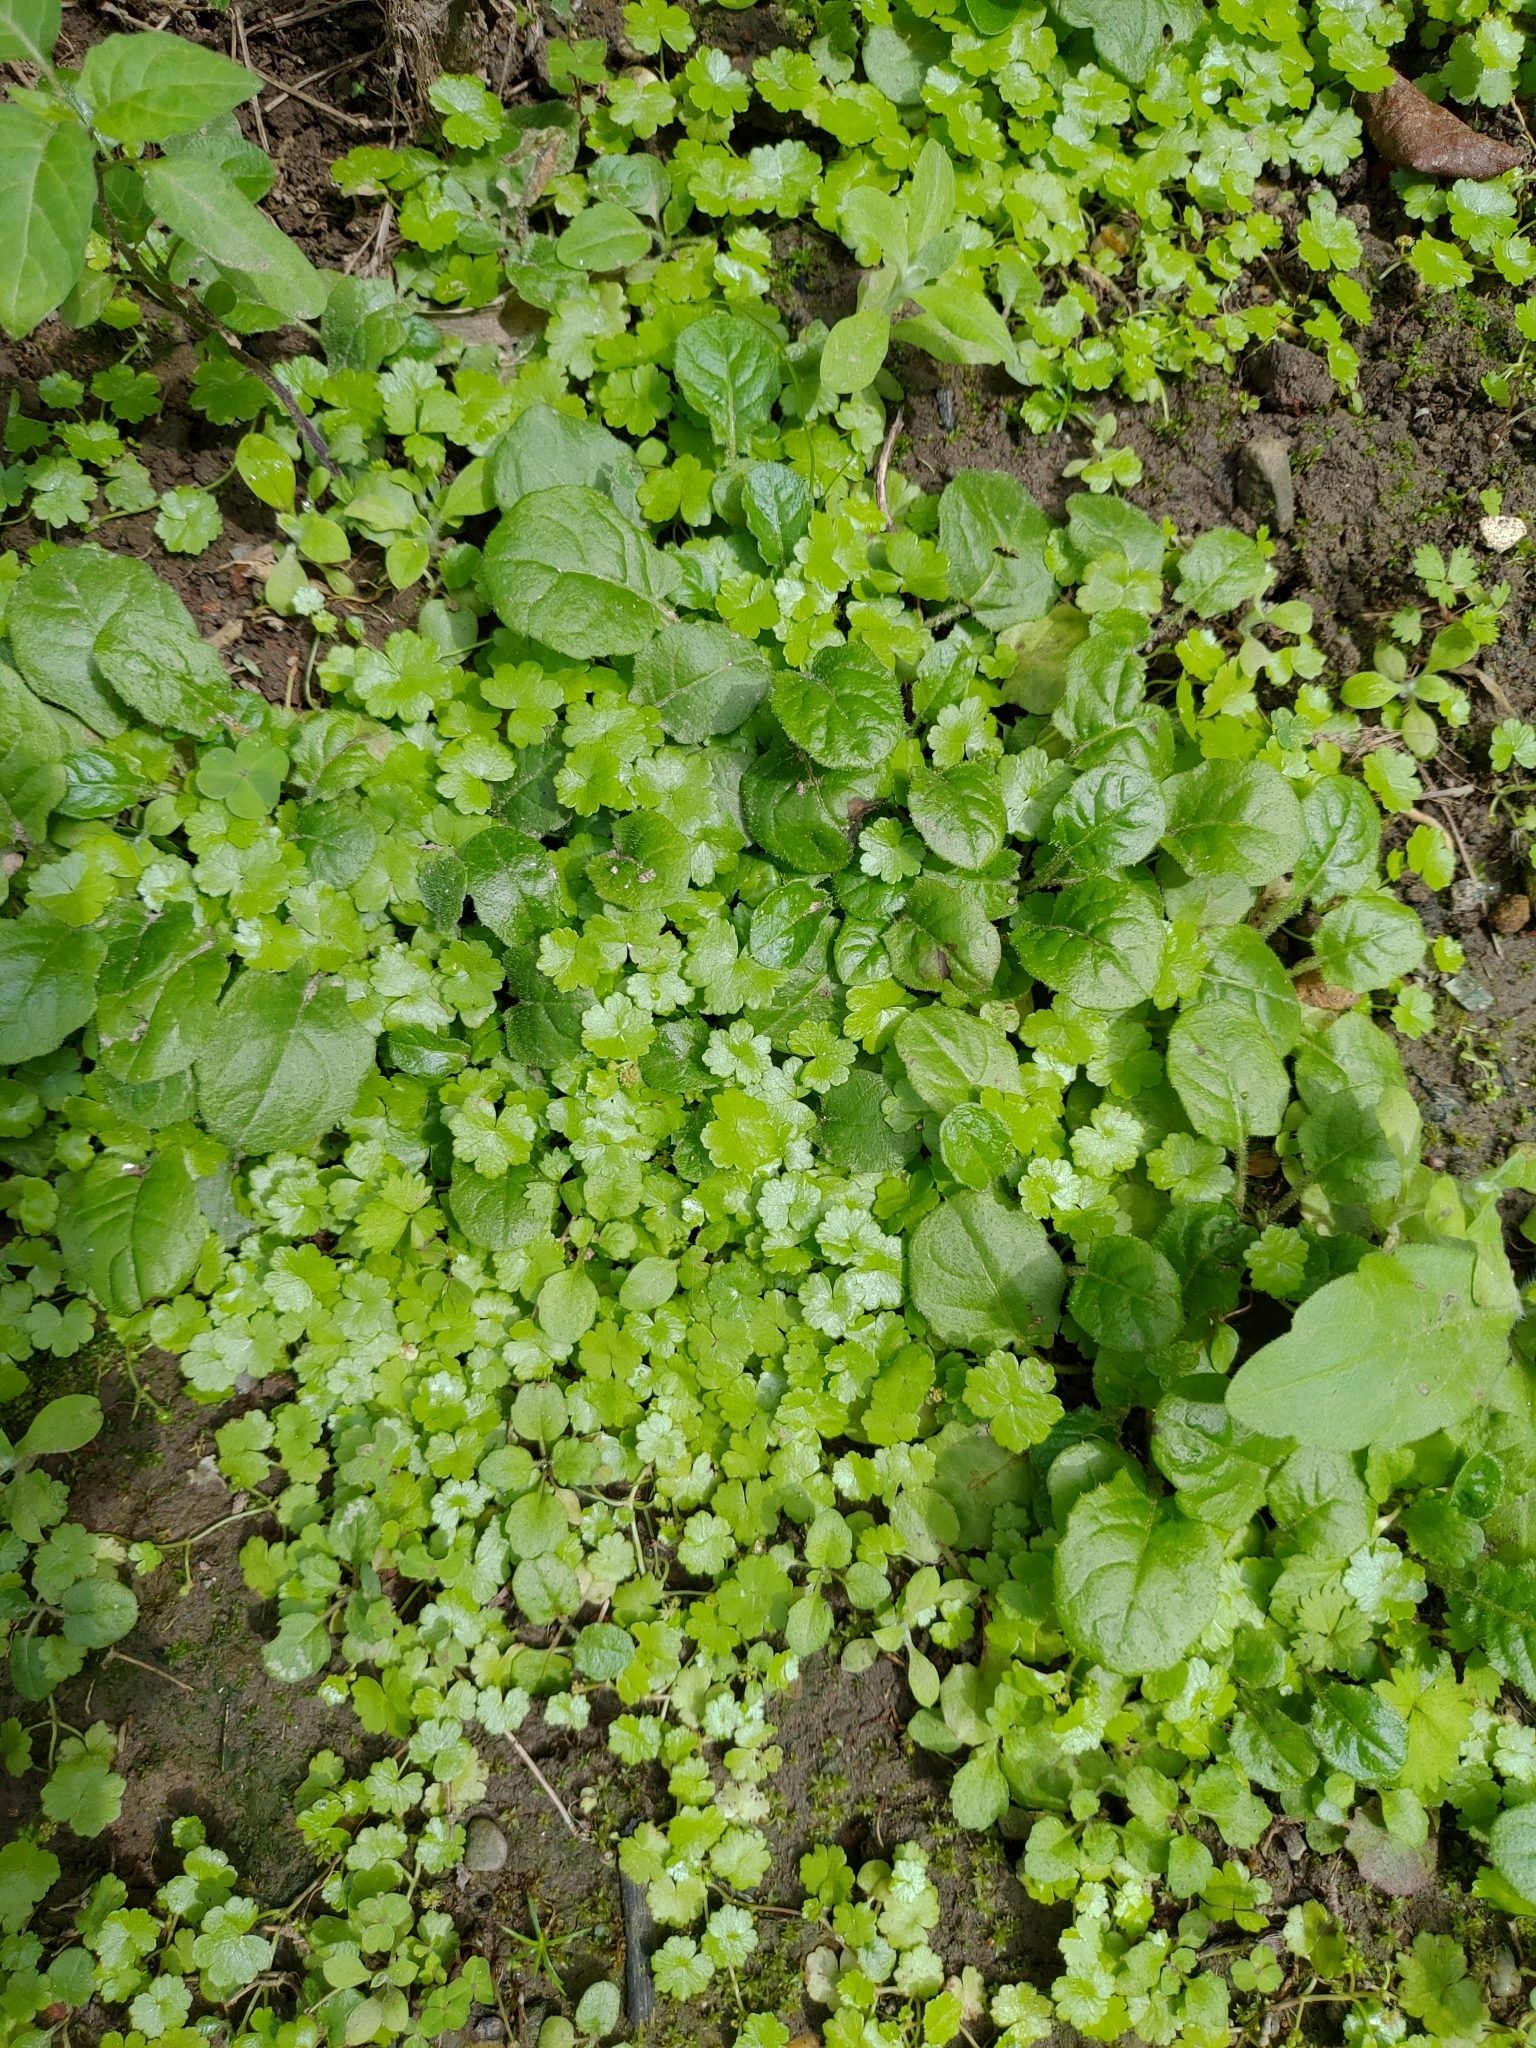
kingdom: Plantae
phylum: Tracheophyta
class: Magnoliopsida
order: Apiales
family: Araliaceae
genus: Hydrocotyle
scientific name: Hydrocotyle sibthorpioides
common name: Lawn marshpennywort
